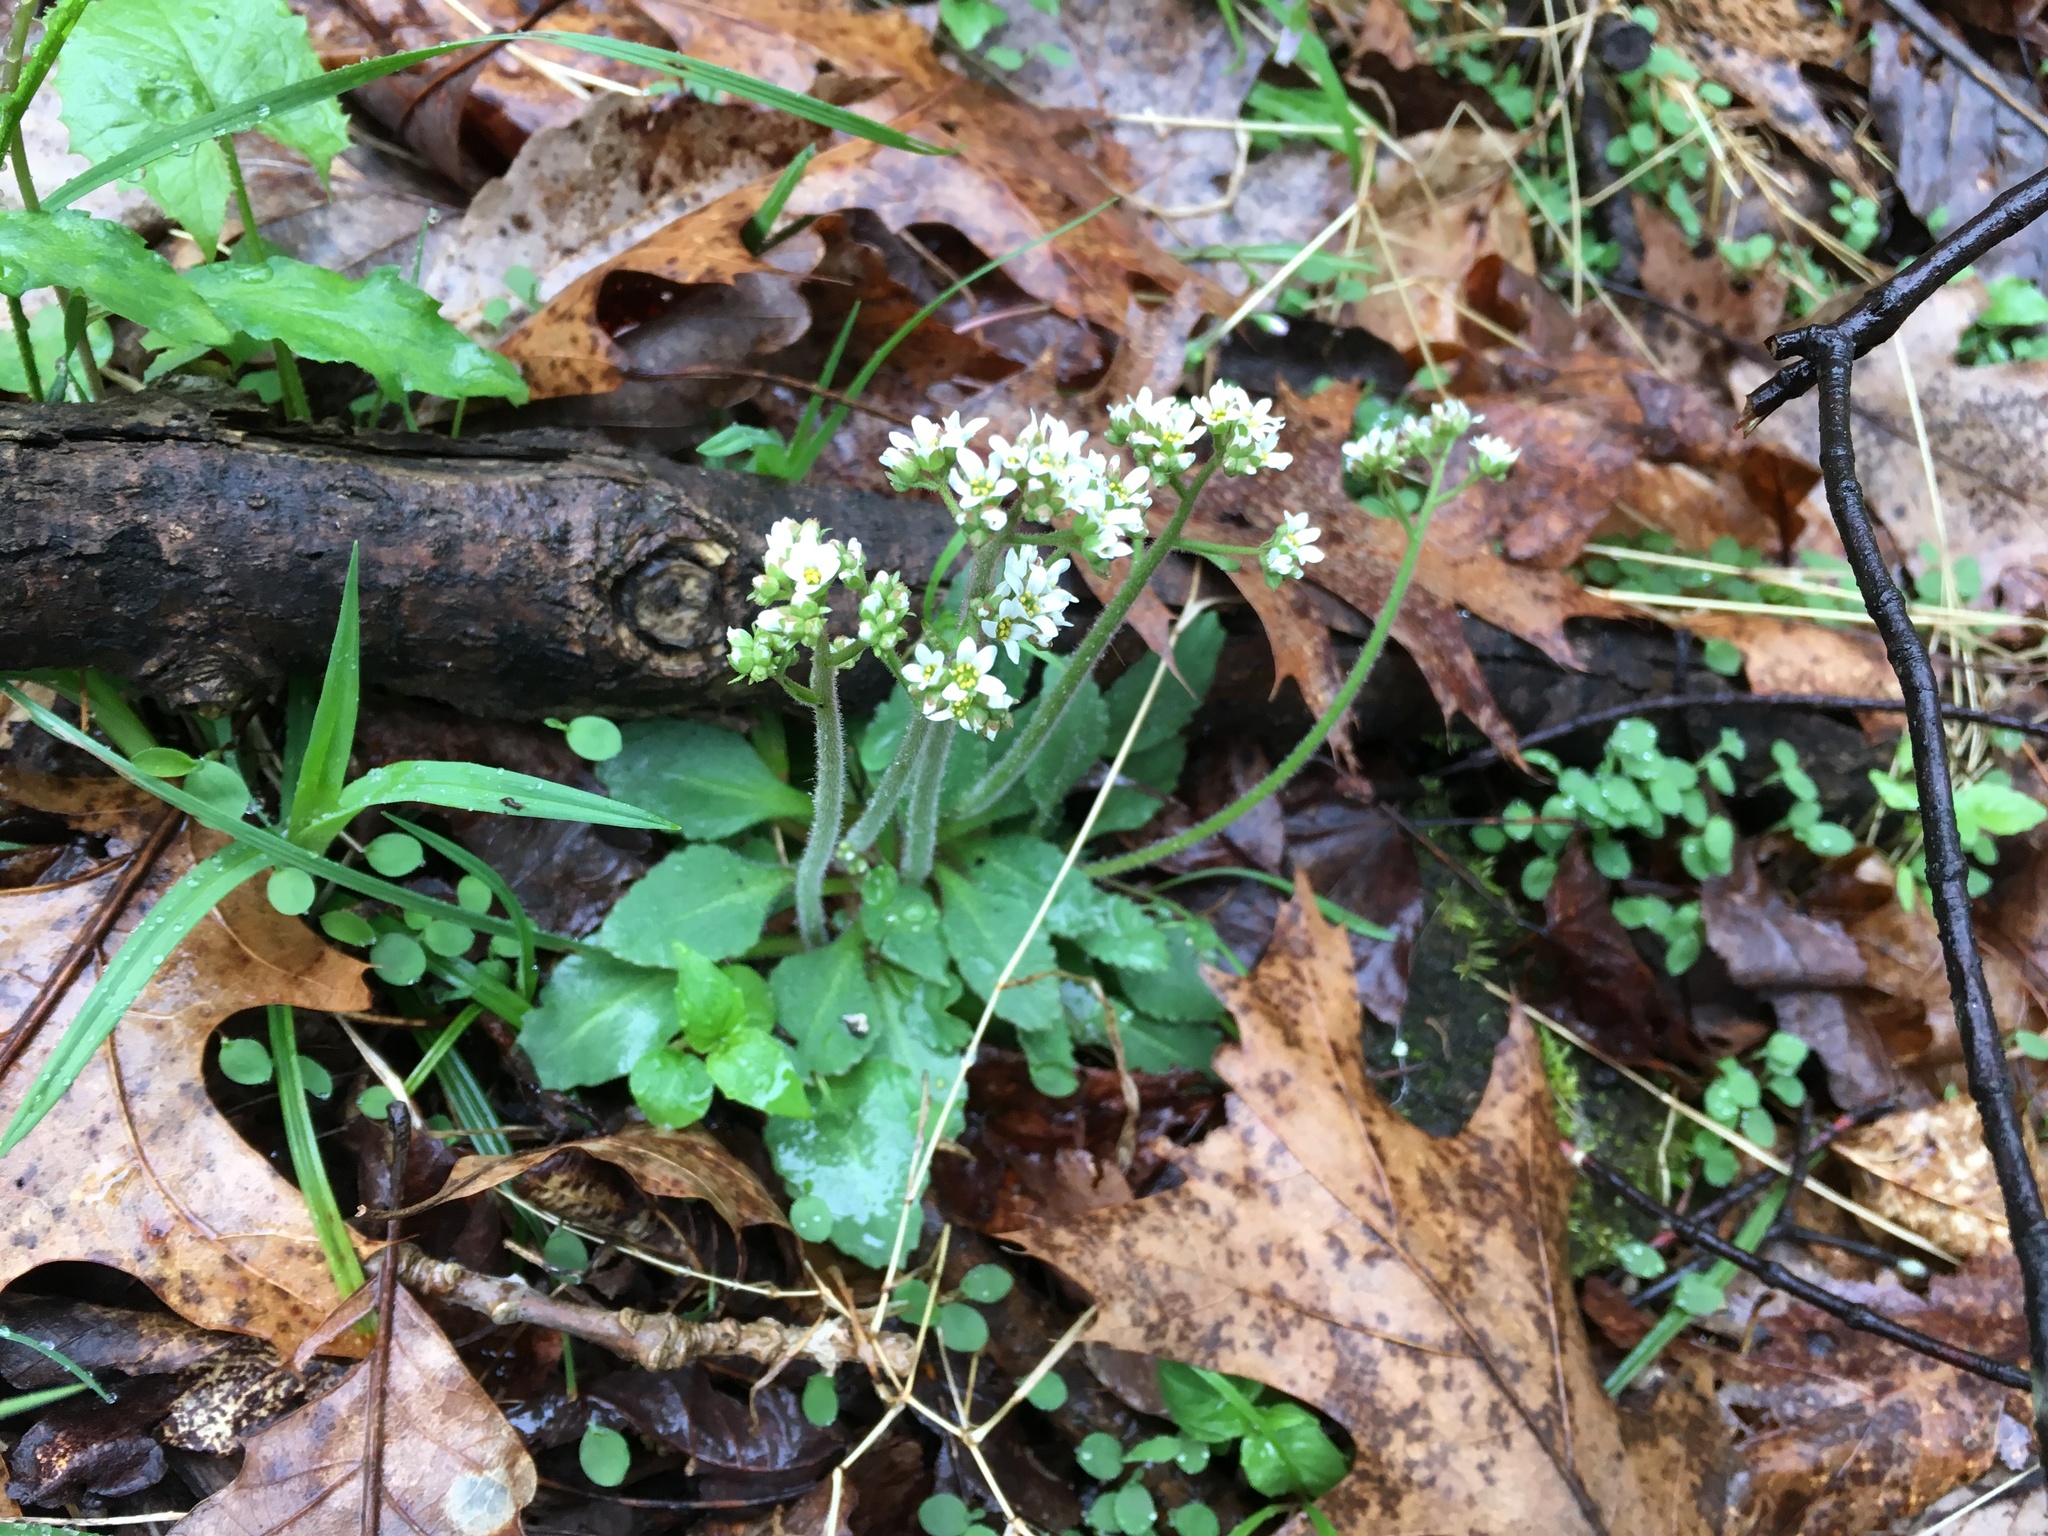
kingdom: Plantae
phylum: Tracheophyta
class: Magnoliopsida
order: Saxifragales
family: Saxifragaceae
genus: Micranthes
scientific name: Micranthes virginiensis
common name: Early saxifrage
